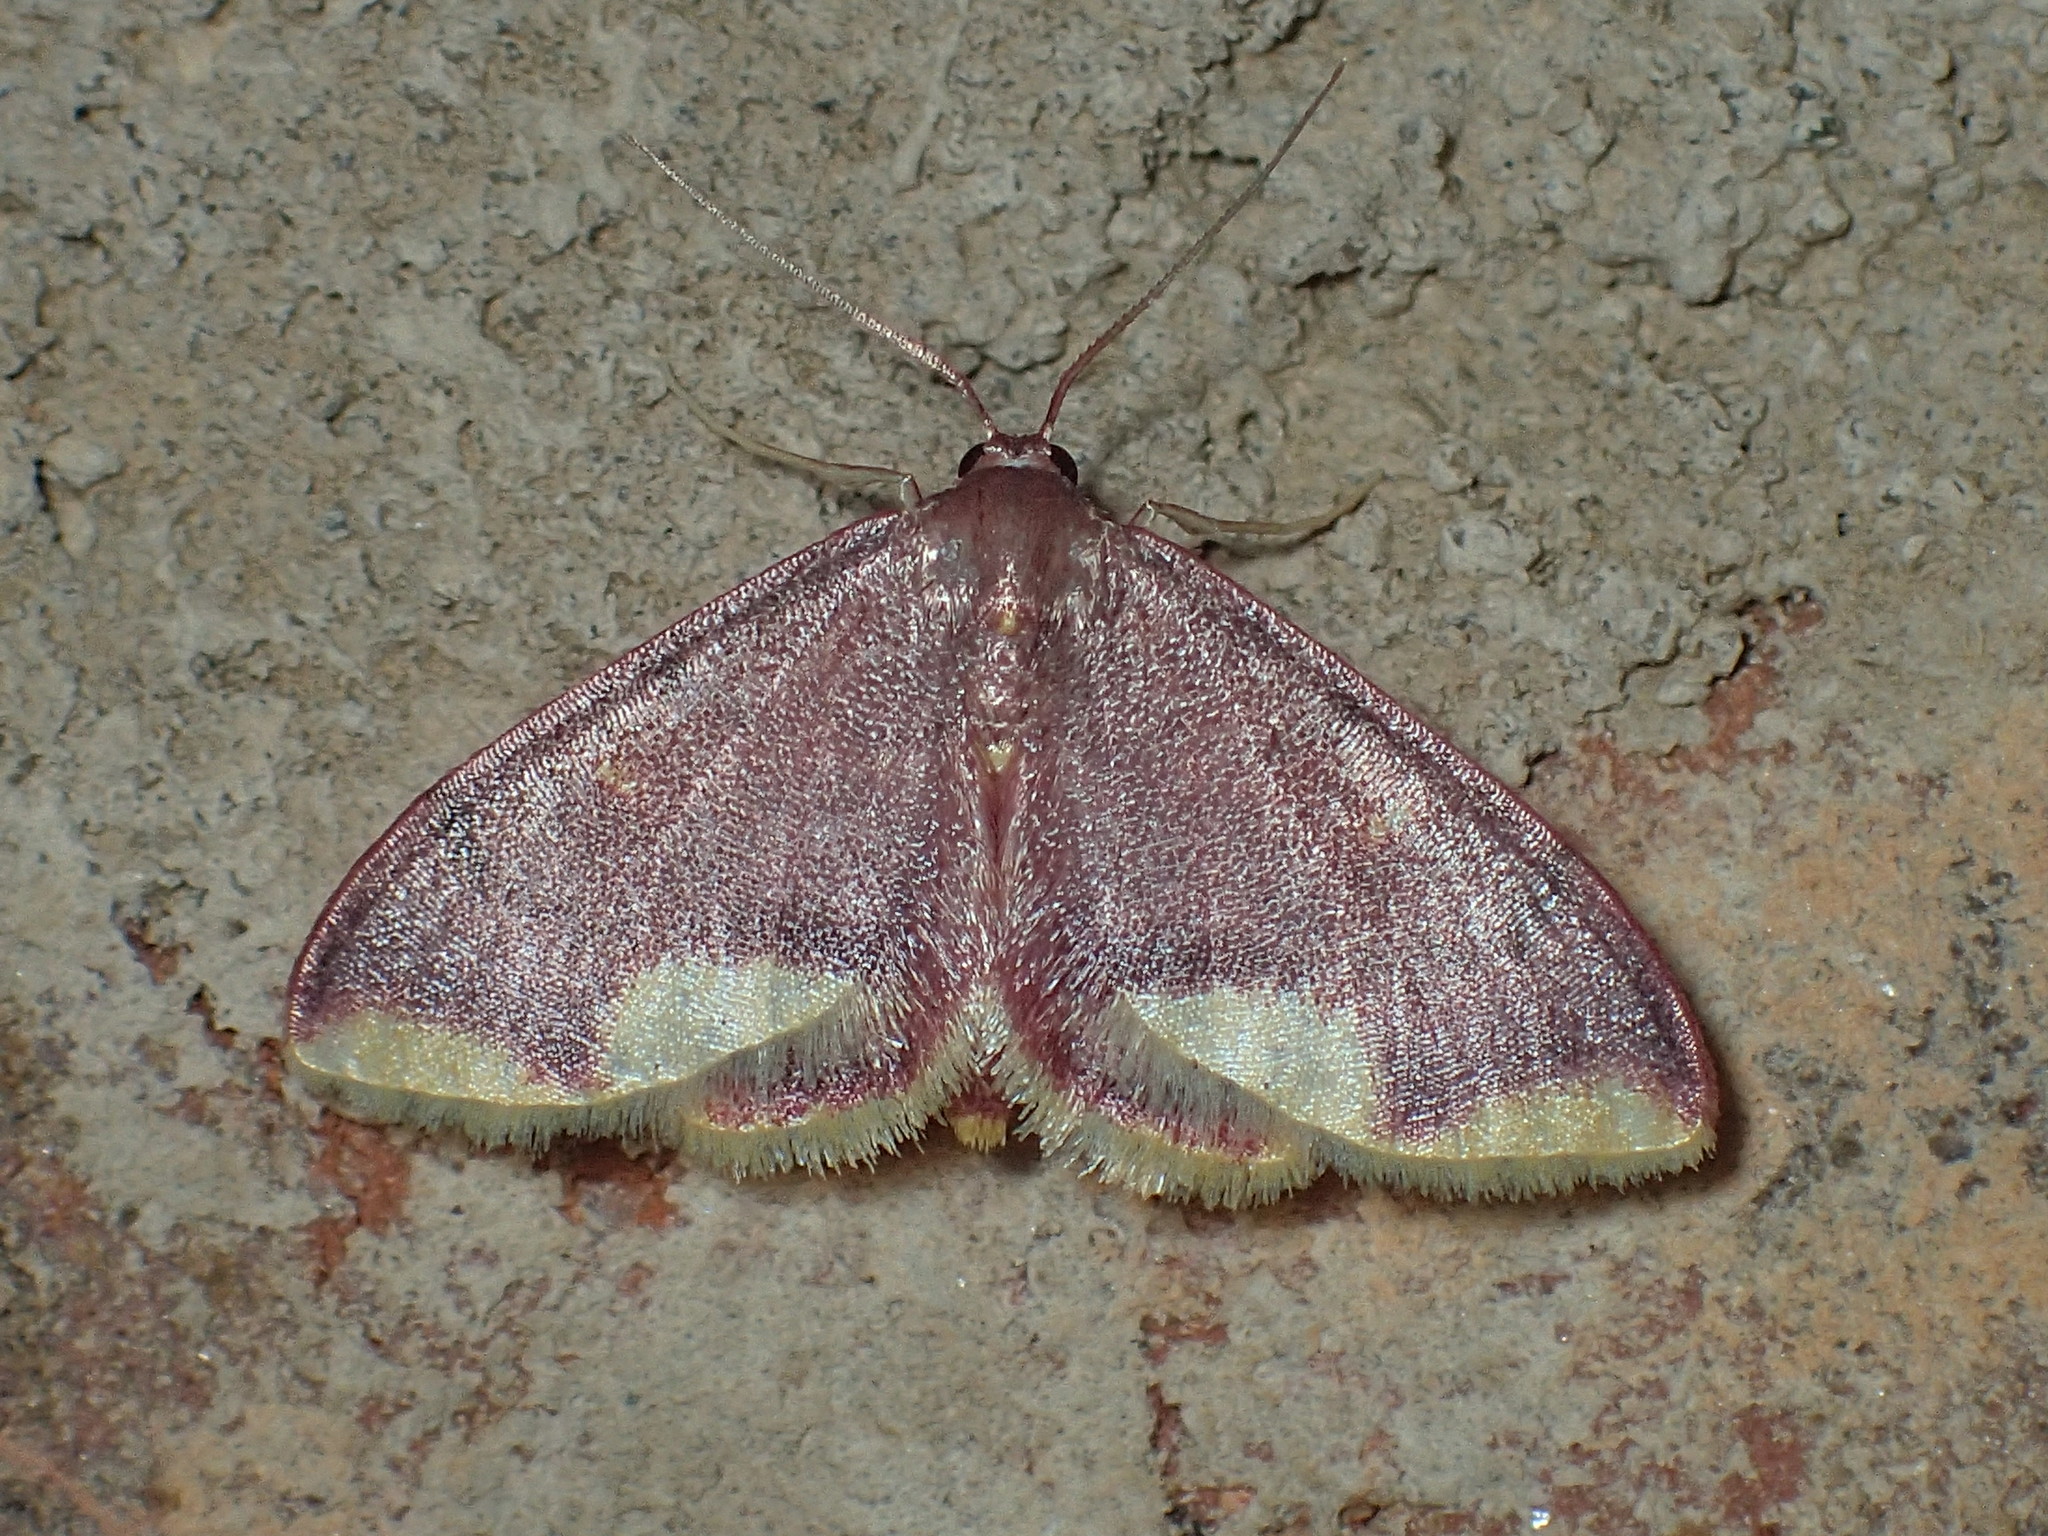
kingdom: Animalia
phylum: Arthropoda
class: Insecta
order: Lepidoptera
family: Geometridae
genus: Lophosis
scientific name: Lophosis labeculata
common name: Stained lophosis moth
